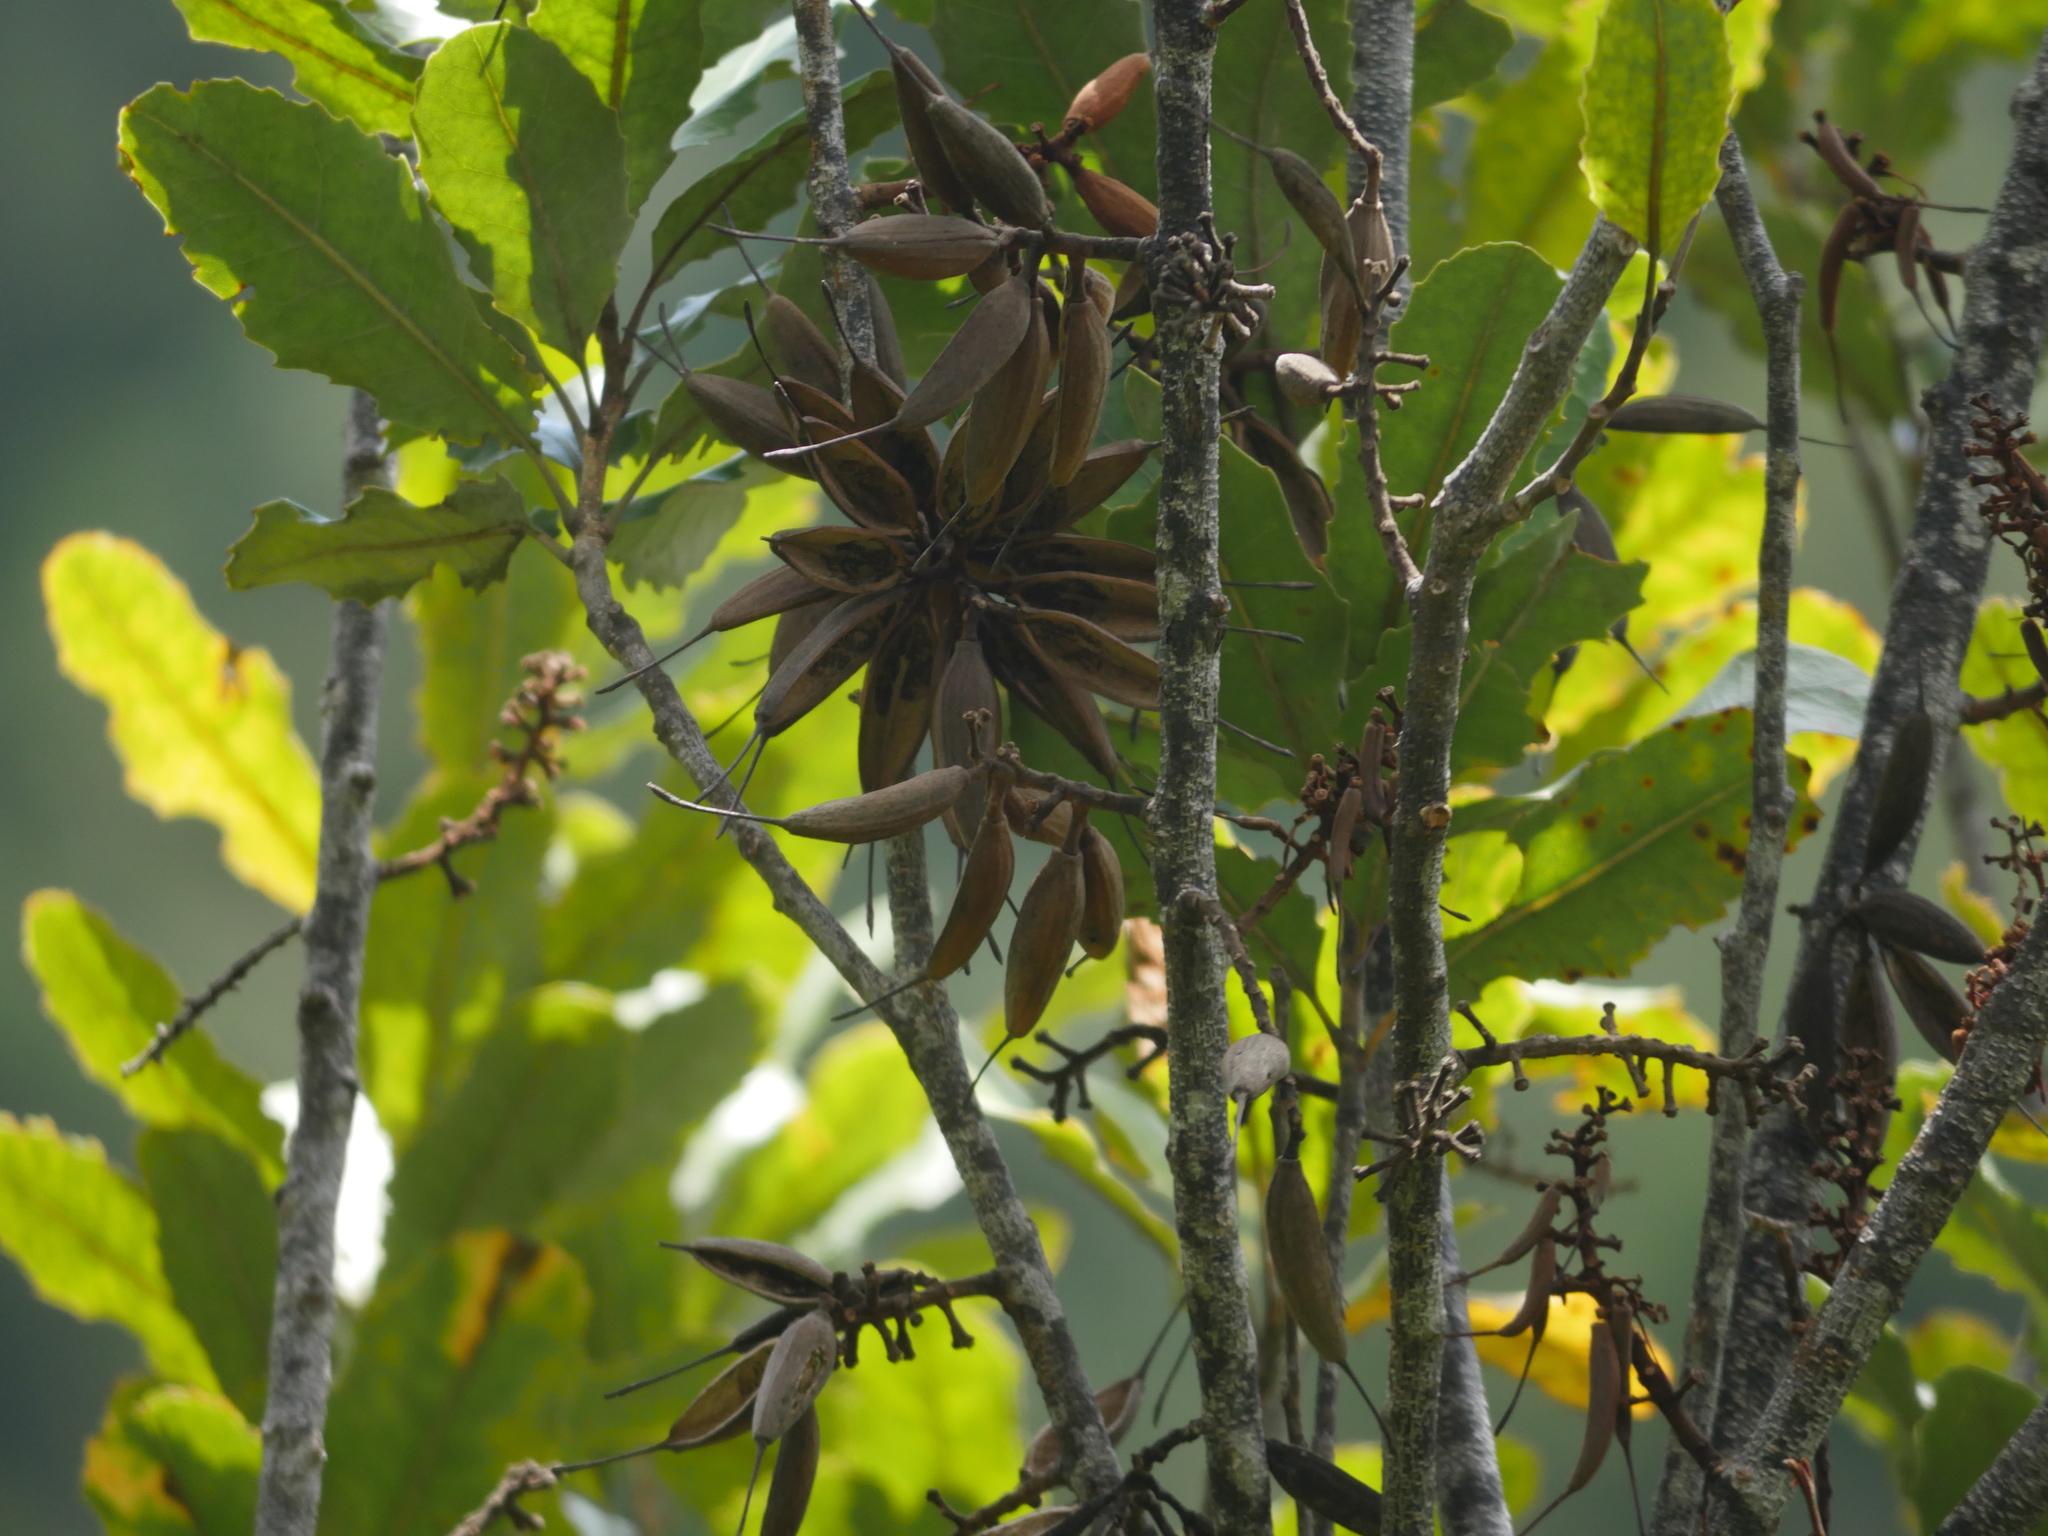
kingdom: Plantae
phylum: Tracheophyta
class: Magnoliopsida
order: Proteales
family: Proteaceae
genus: Knightia
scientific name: Knightia excelsa
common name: New zealand-honeysuckle
